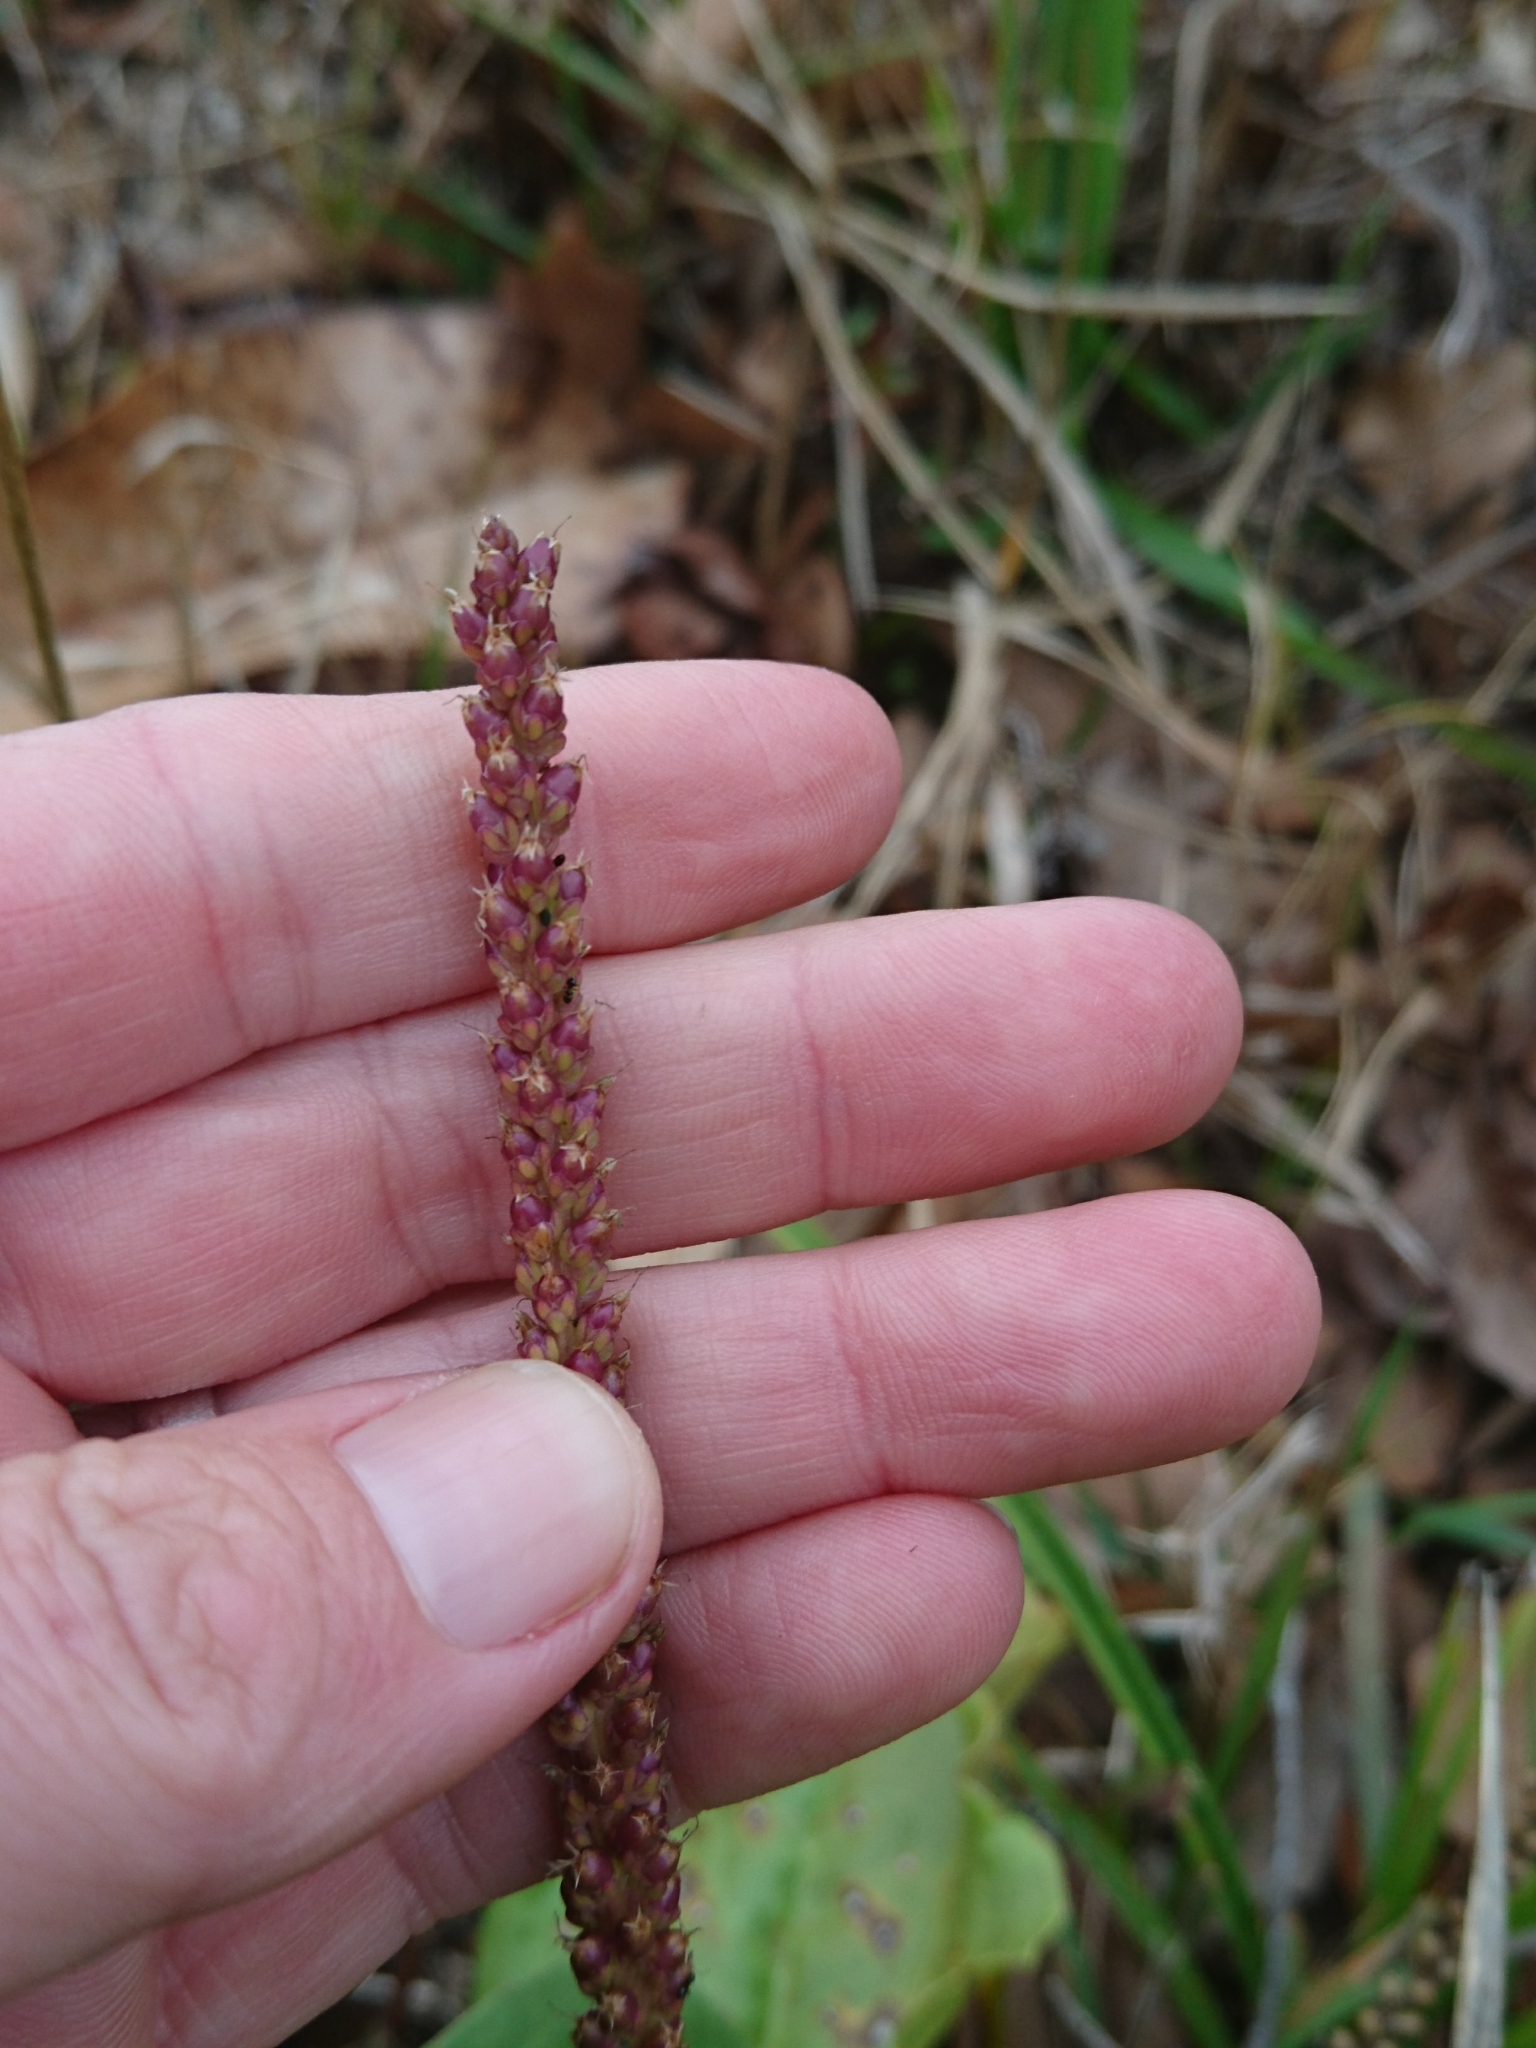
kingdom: Plantae
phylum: Tracheophyta
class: Magnoliopsida
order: Lamiales
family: Plantaginaceae
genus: Plantago
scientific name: Plantago major
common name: Common plantain
